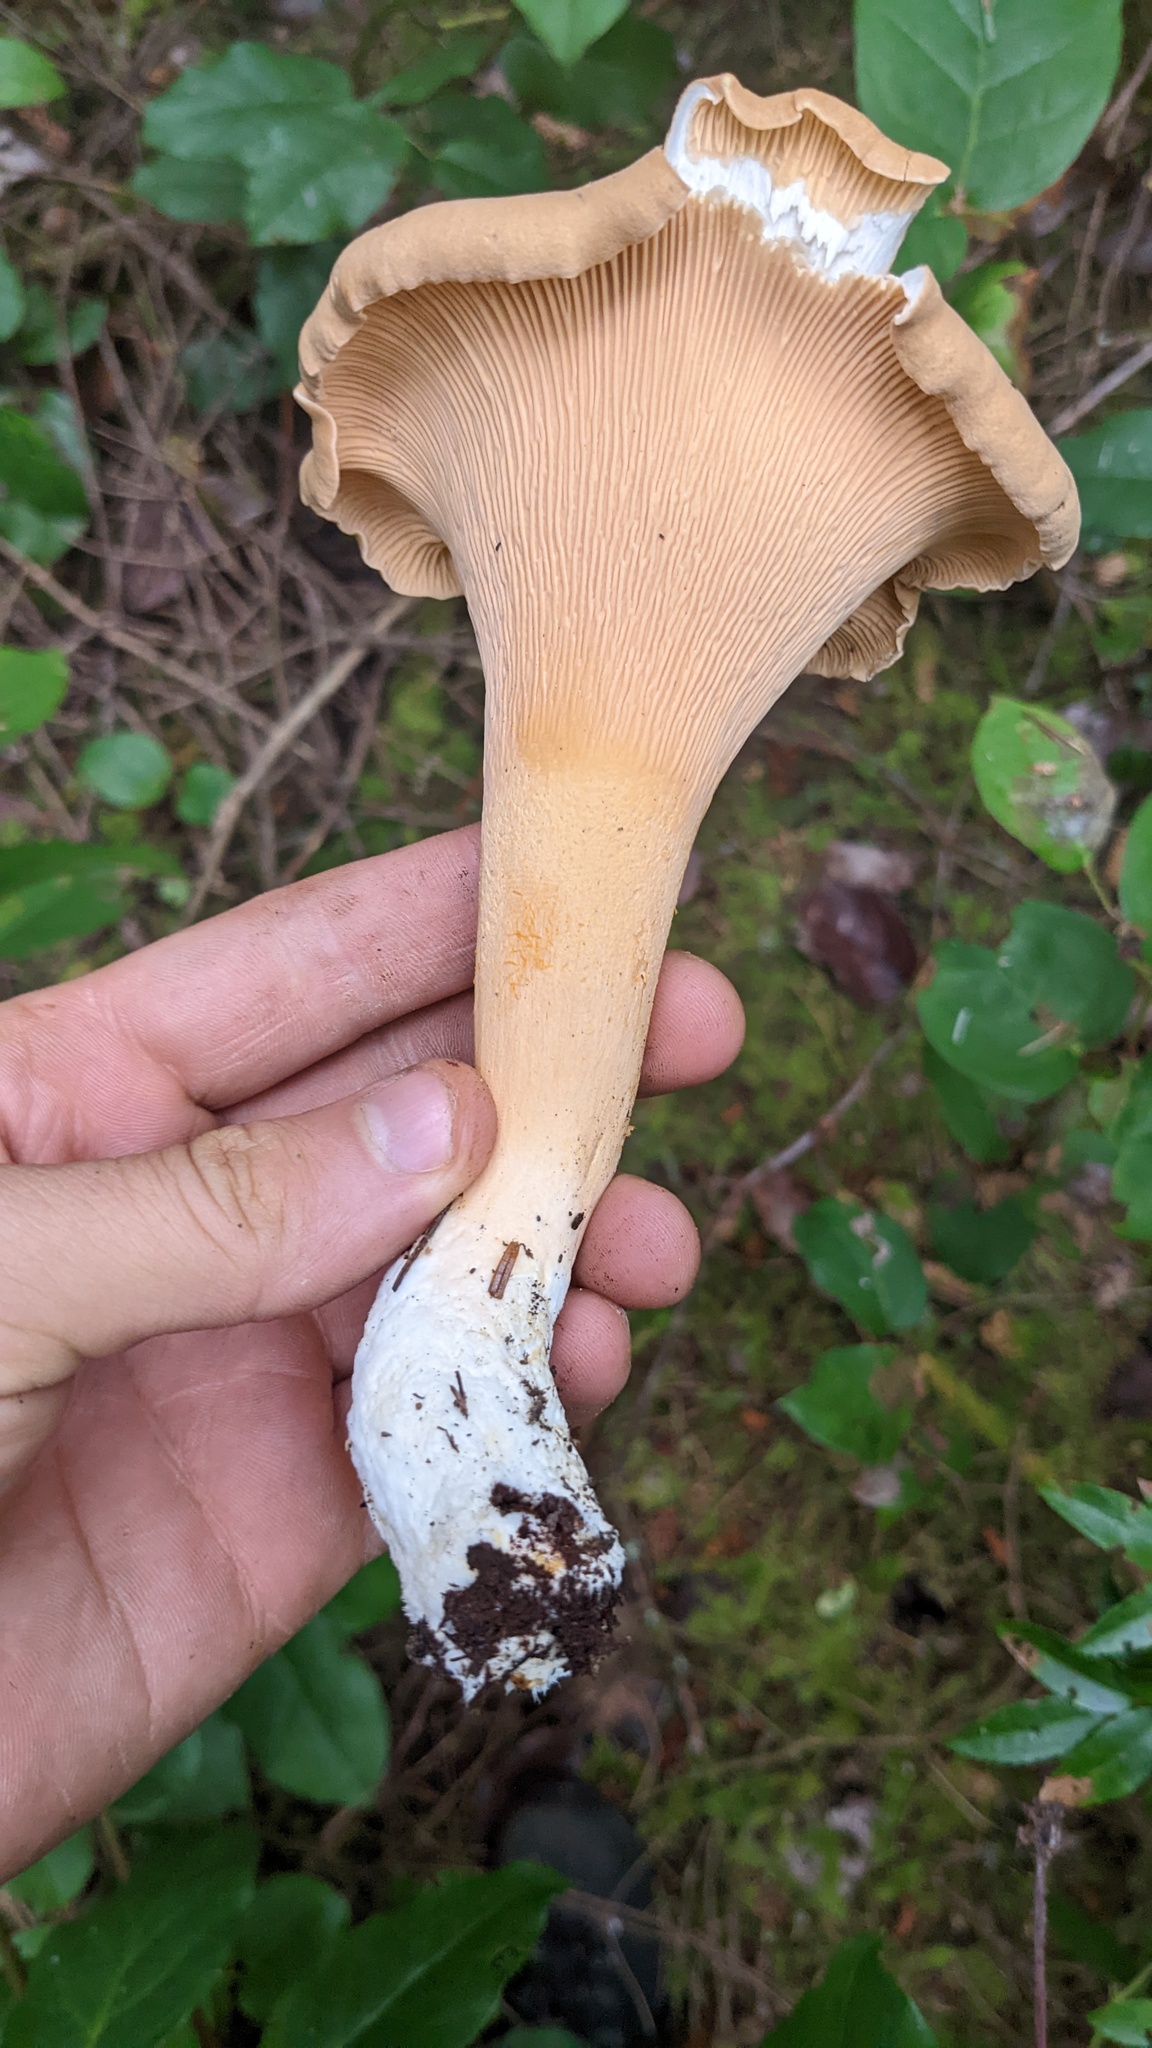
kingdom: Fungi
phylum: Basidiomycota
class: Agaricomycetes
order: Cantharellales
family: Hydnaceae
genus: Cantharellus
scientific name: Cantharellus formosus
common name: Pacific golden chanterelle
